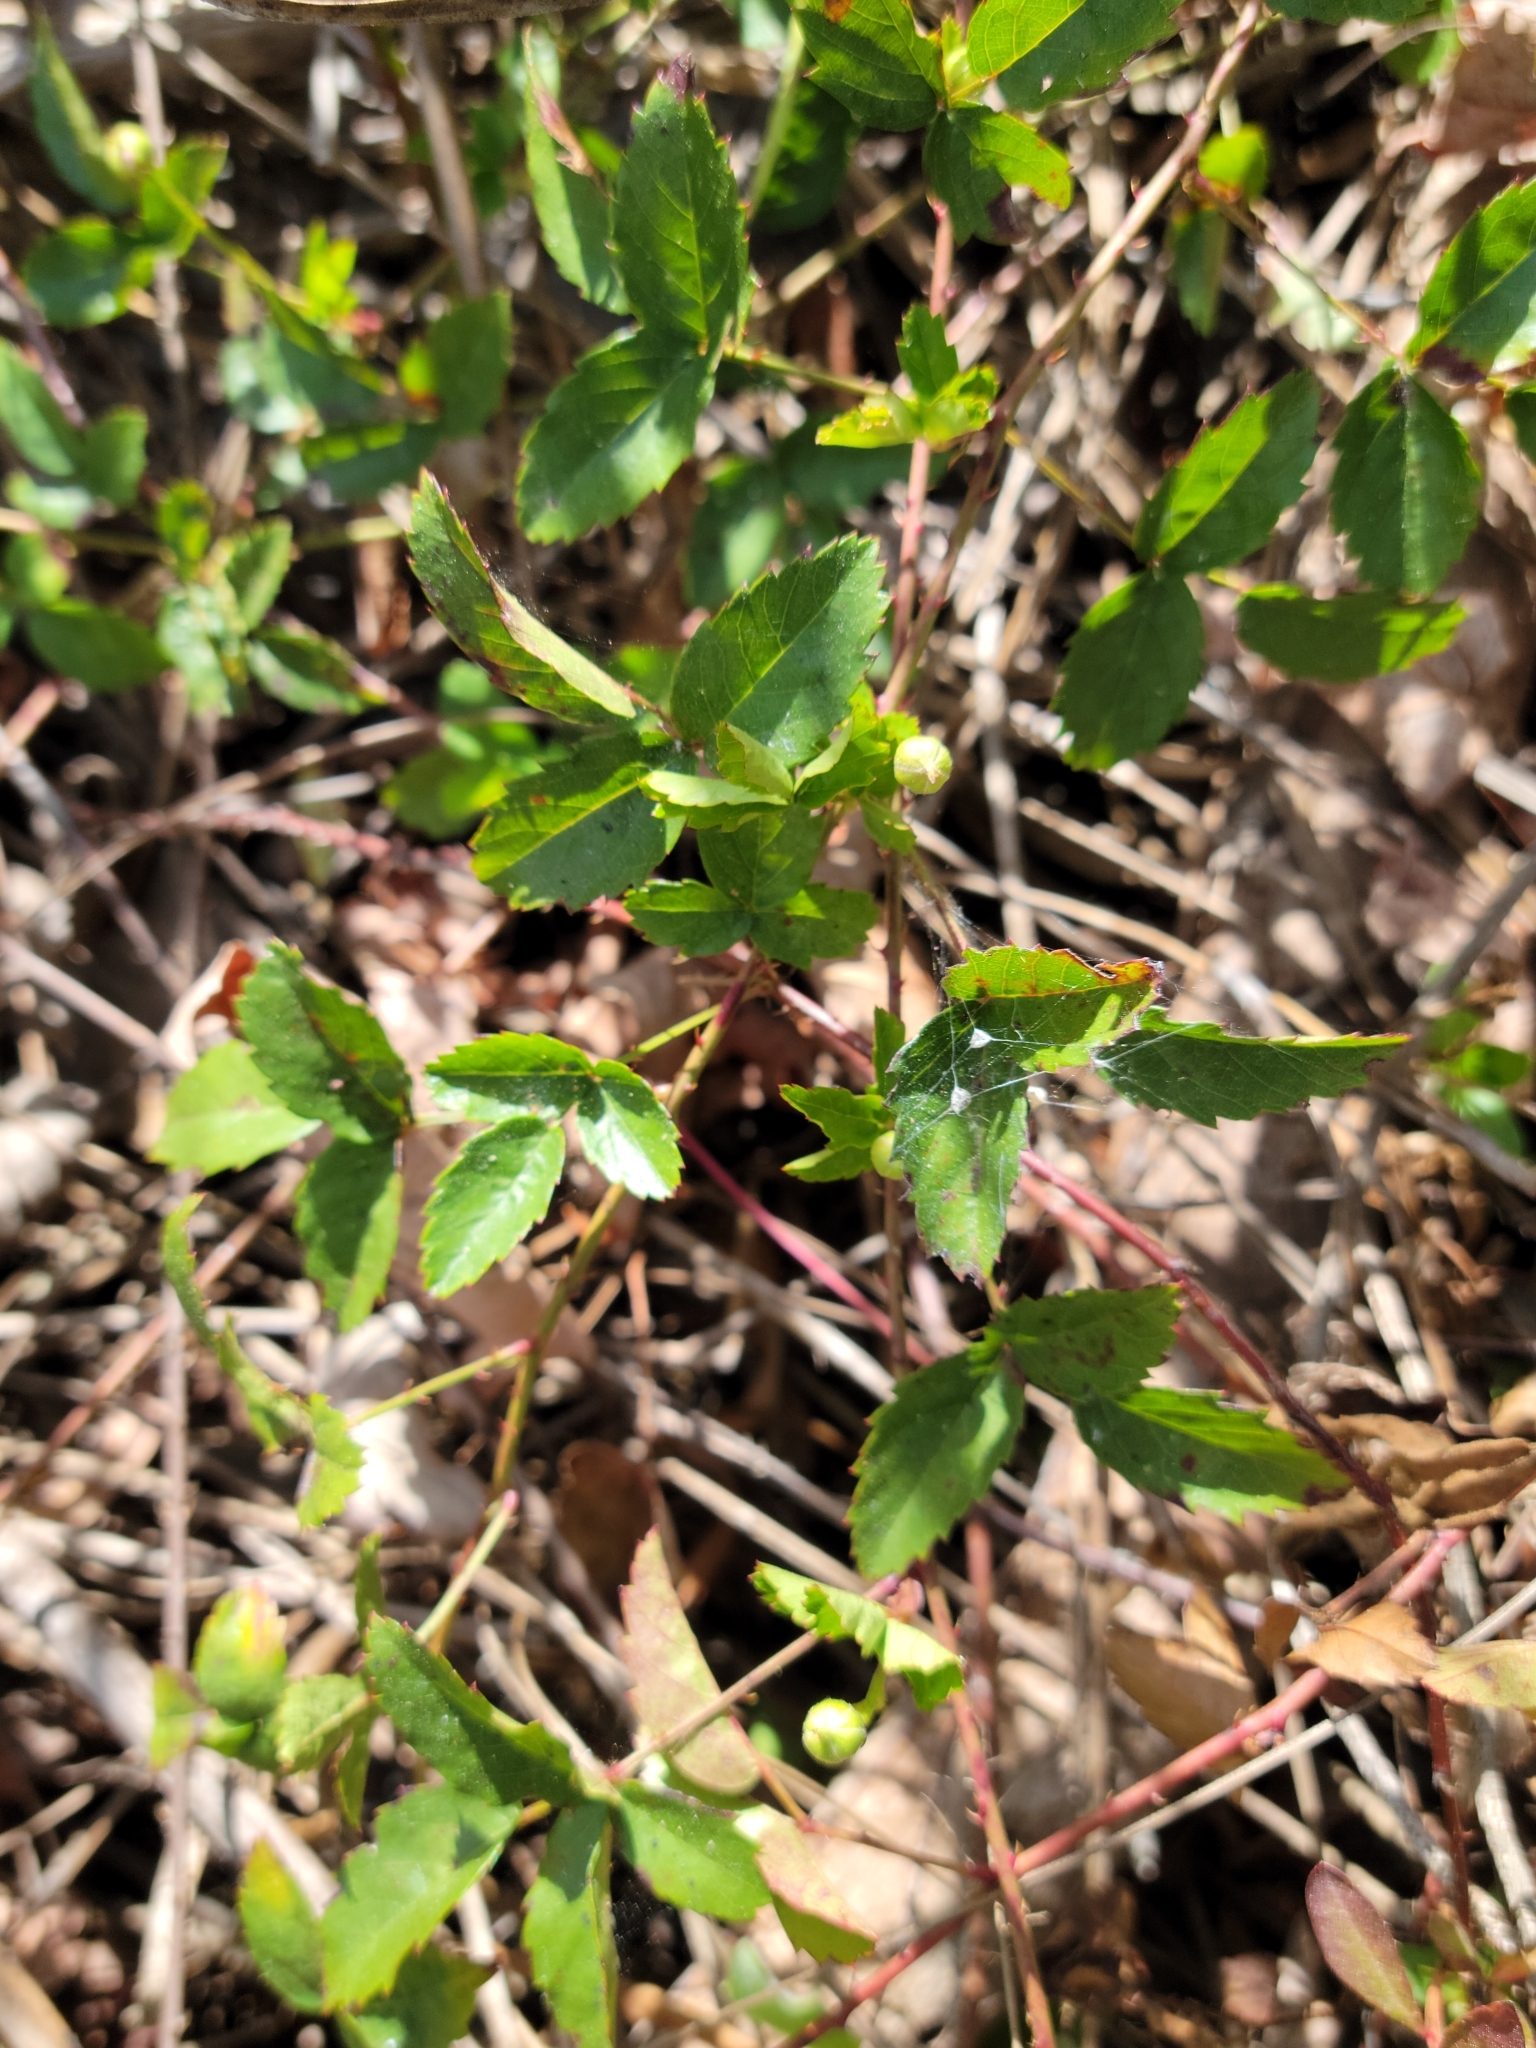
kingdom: Plantae
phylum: Tracheophyta
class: Magnoliopsida
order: Rosales
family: Rosaceae
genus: Rubus
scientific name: Rubus trivialis
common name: Southern dewberry
